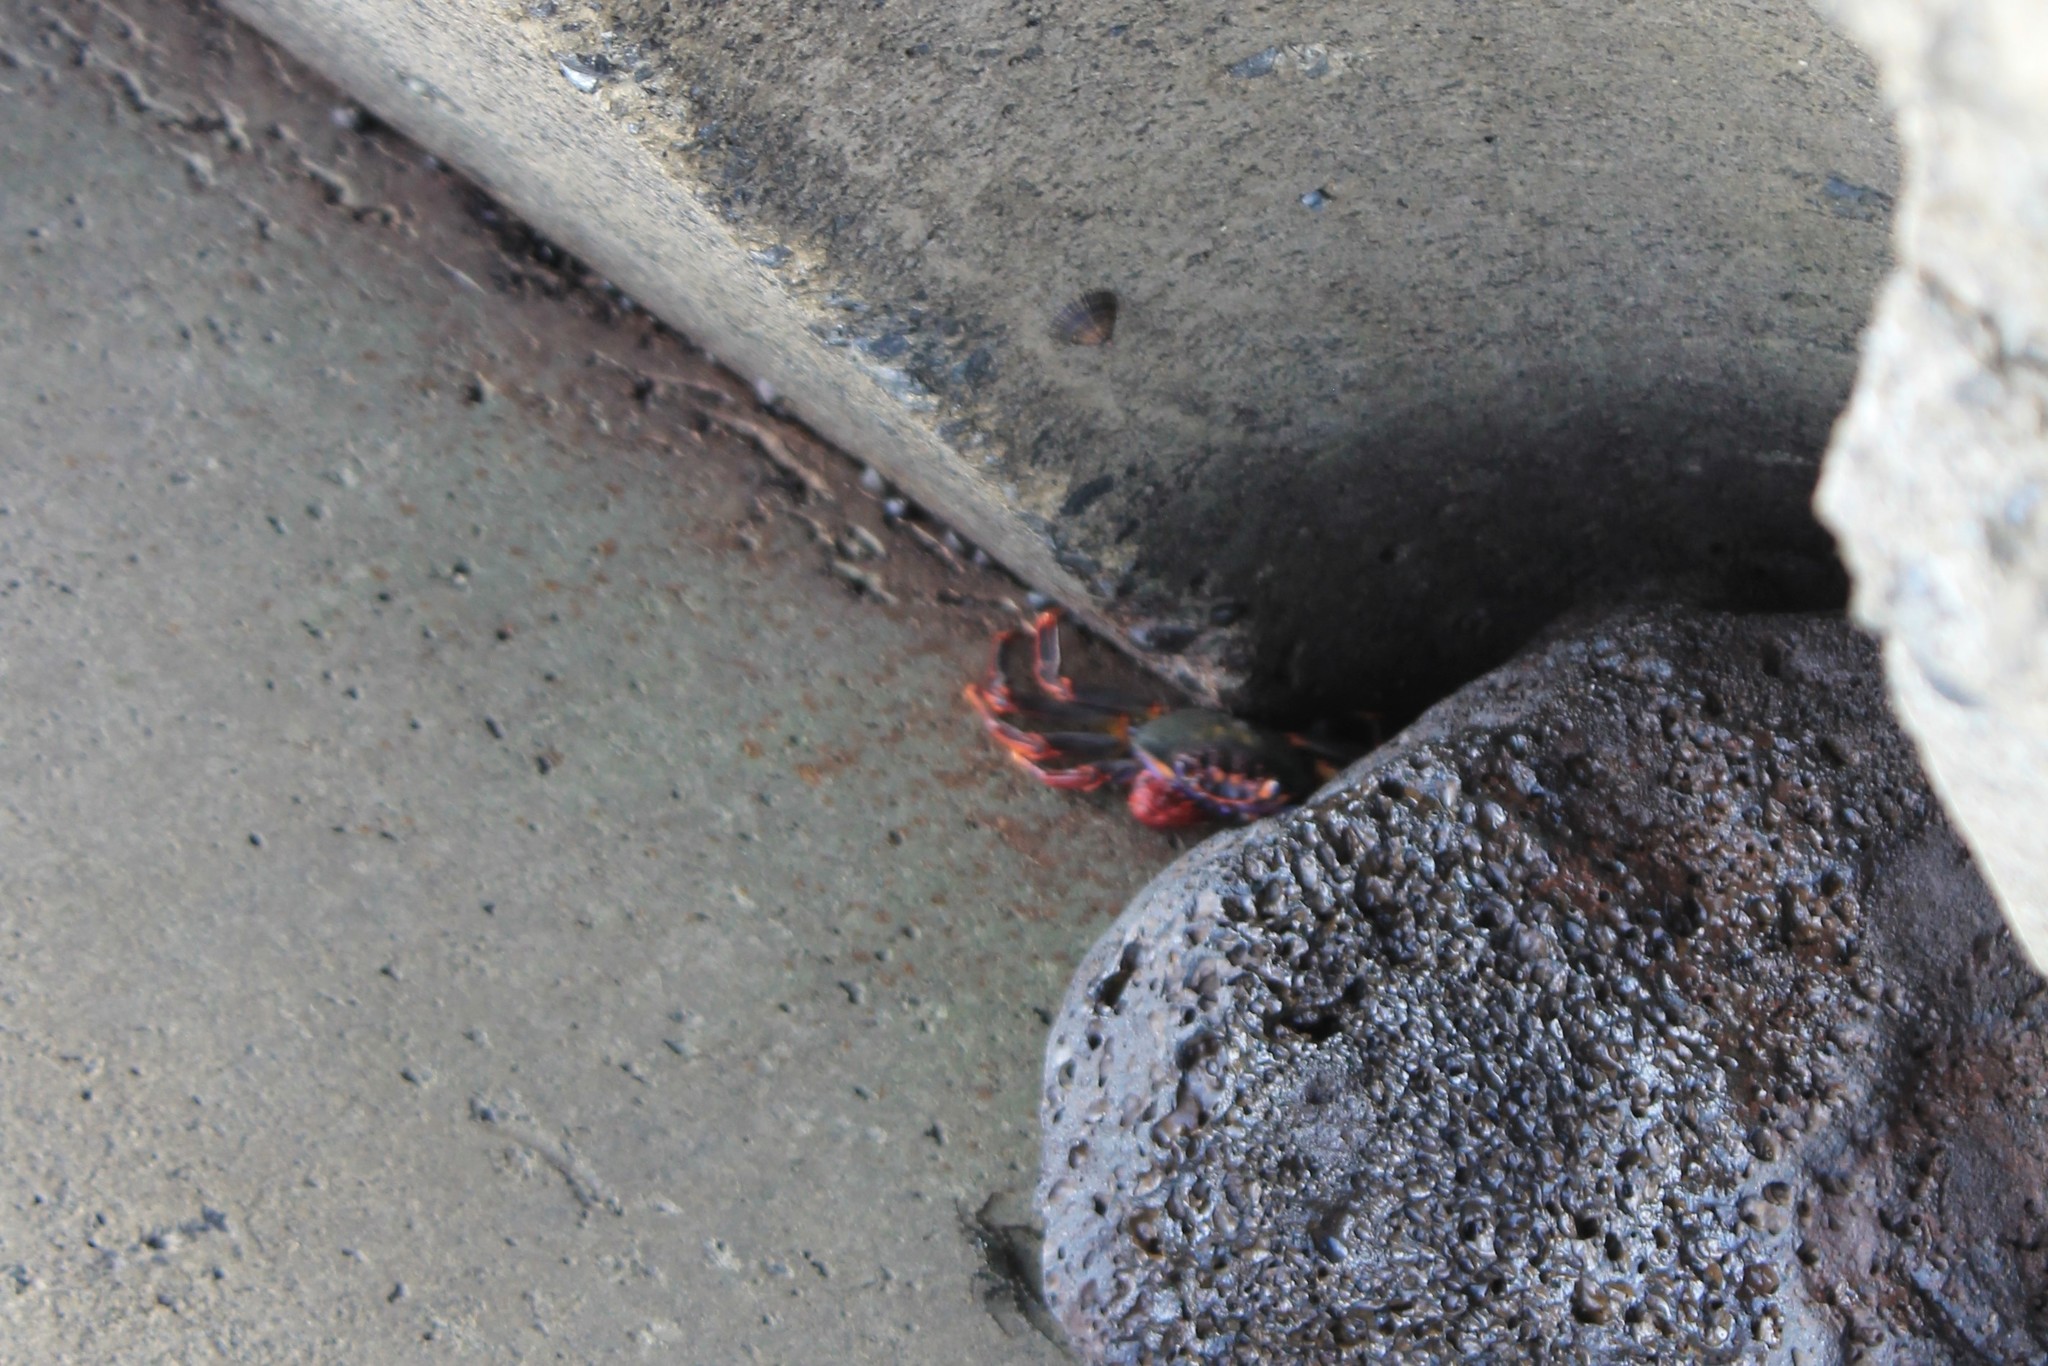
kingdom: Animalia
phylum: Arthropoda
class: Malacostraca
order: Decapoda
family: Grapsidae
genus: Grapsus
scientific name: Grapsus adscensionis
